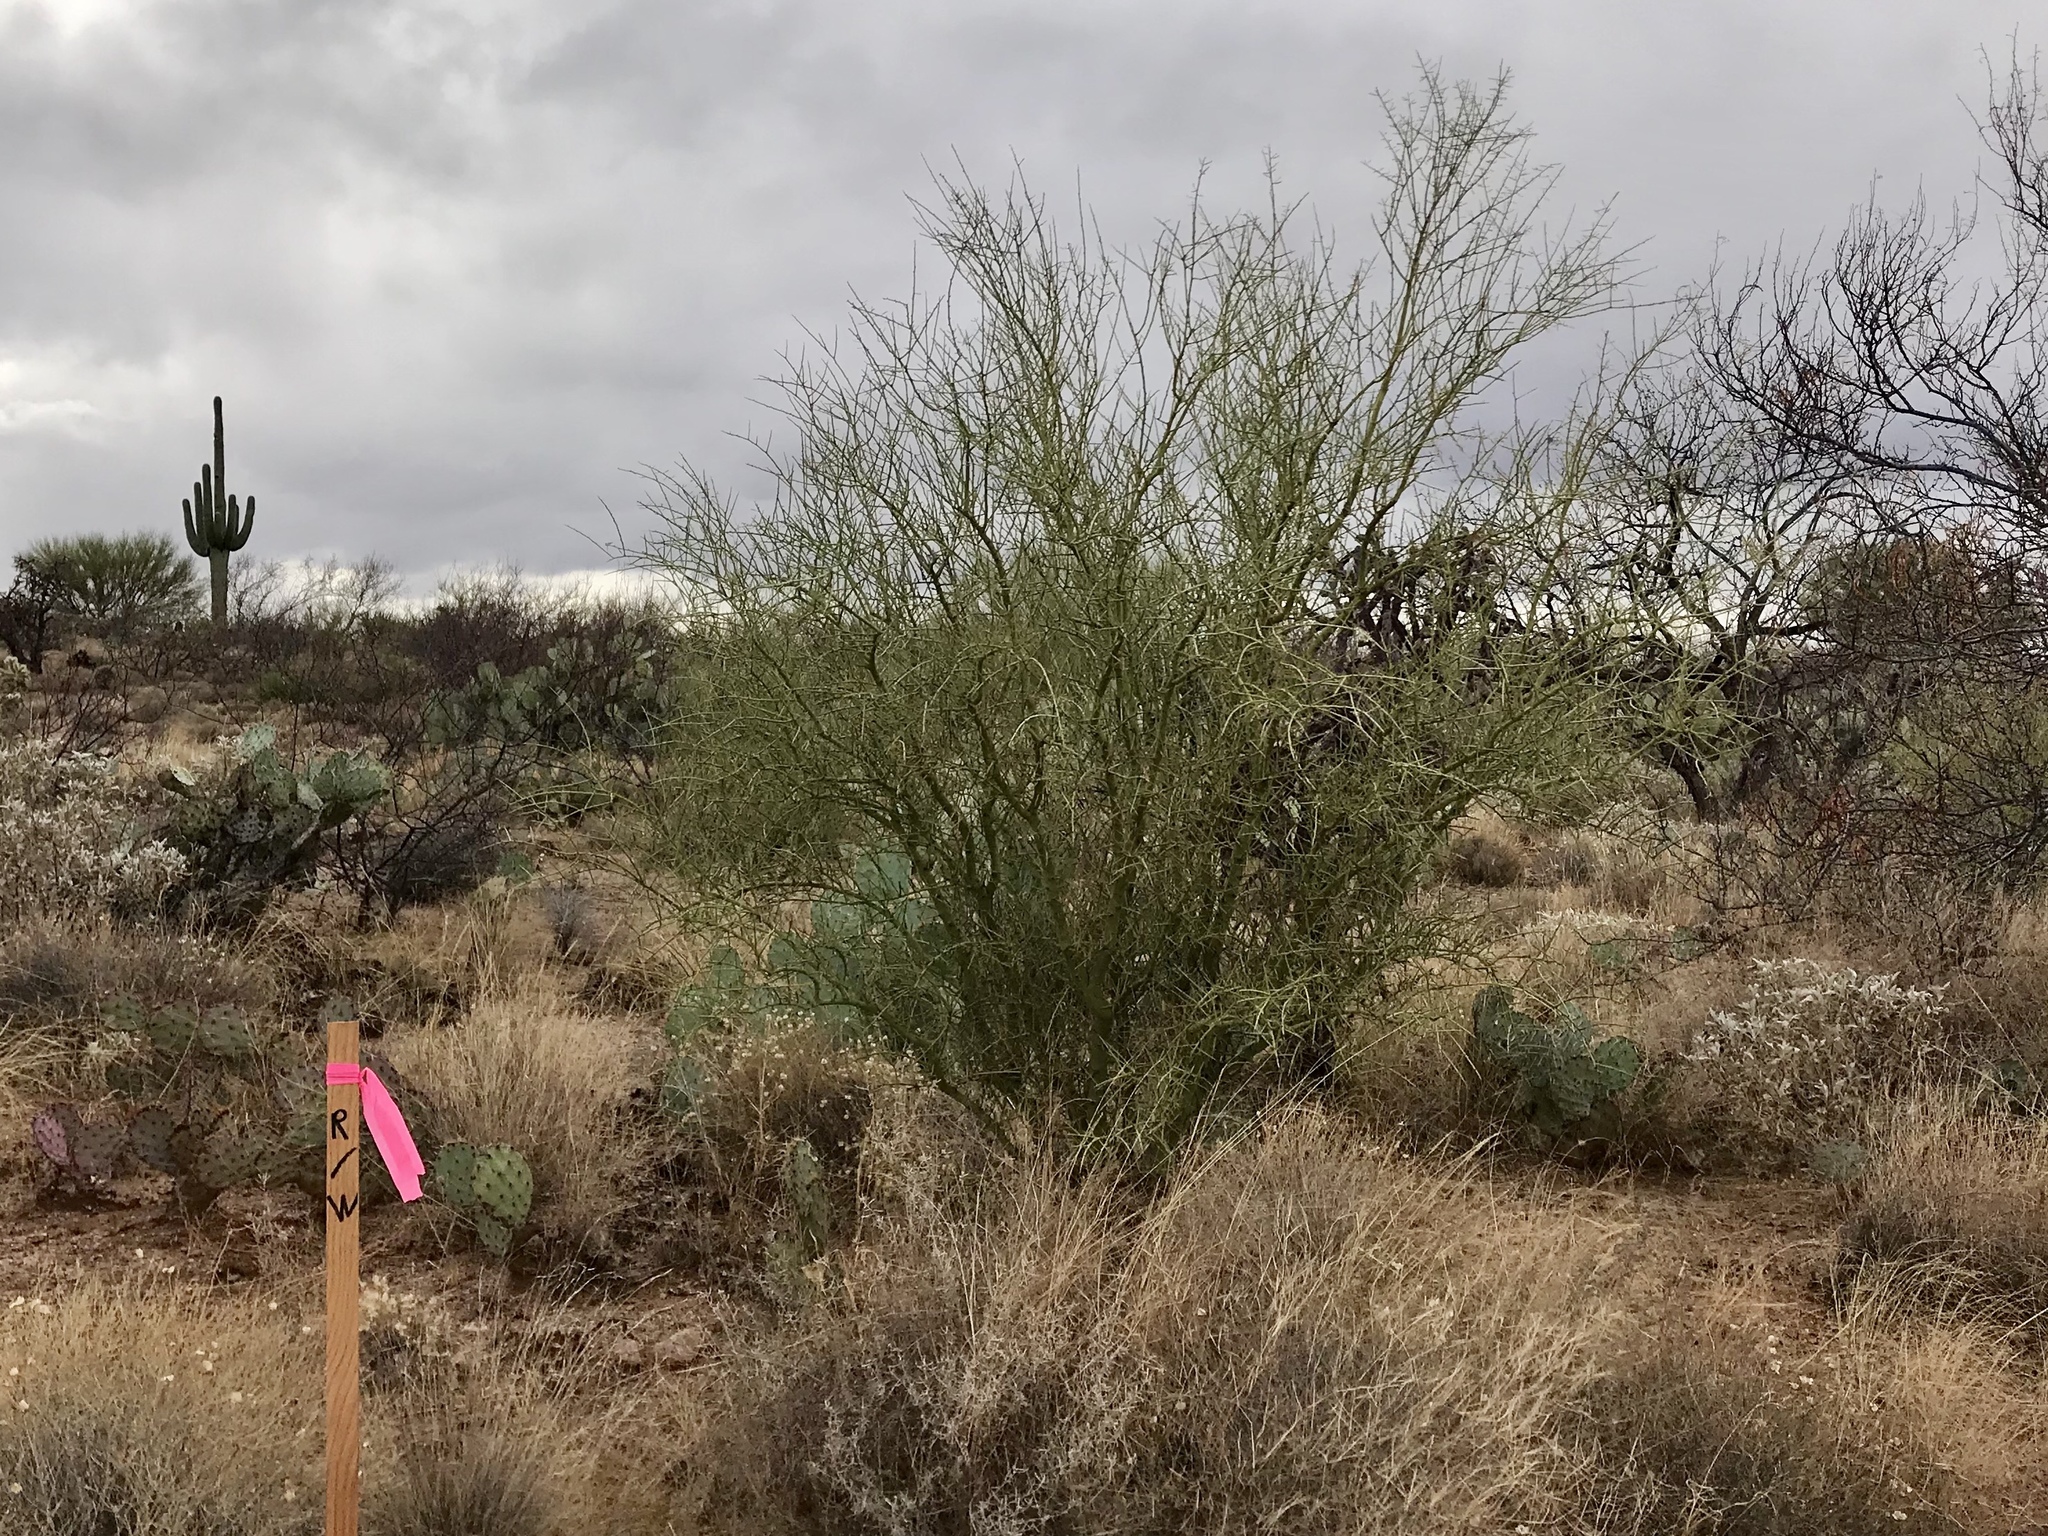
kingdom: Plantae
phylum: Tracheophyta
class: Magnoliopsida
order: Fabales
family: Fabaceae
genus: Parkinsonia
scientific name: Parkinsonia florida
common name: Blue paloverde
